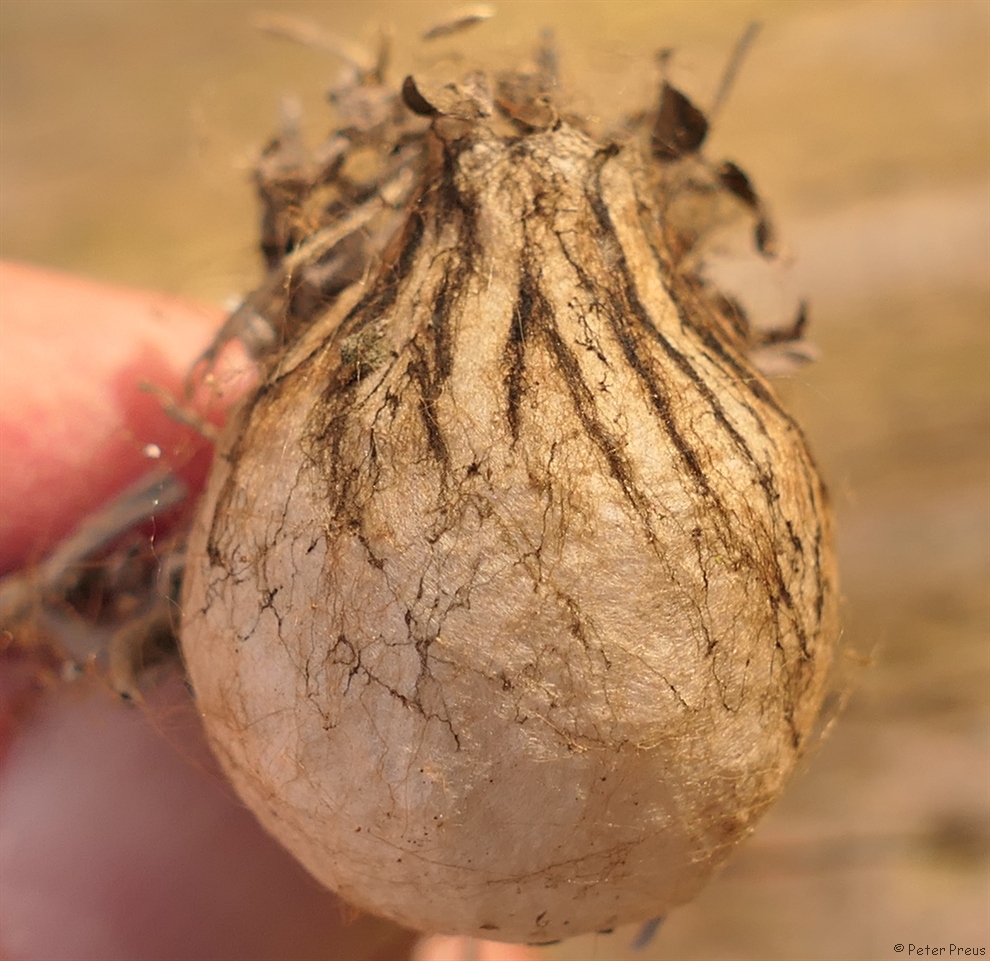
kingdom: Animalia
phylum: Arthropoda
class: Arachnida
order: Araneae
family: Araneidae
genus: Argiope
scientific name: Argiope bruennichi
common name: Wasp spider
